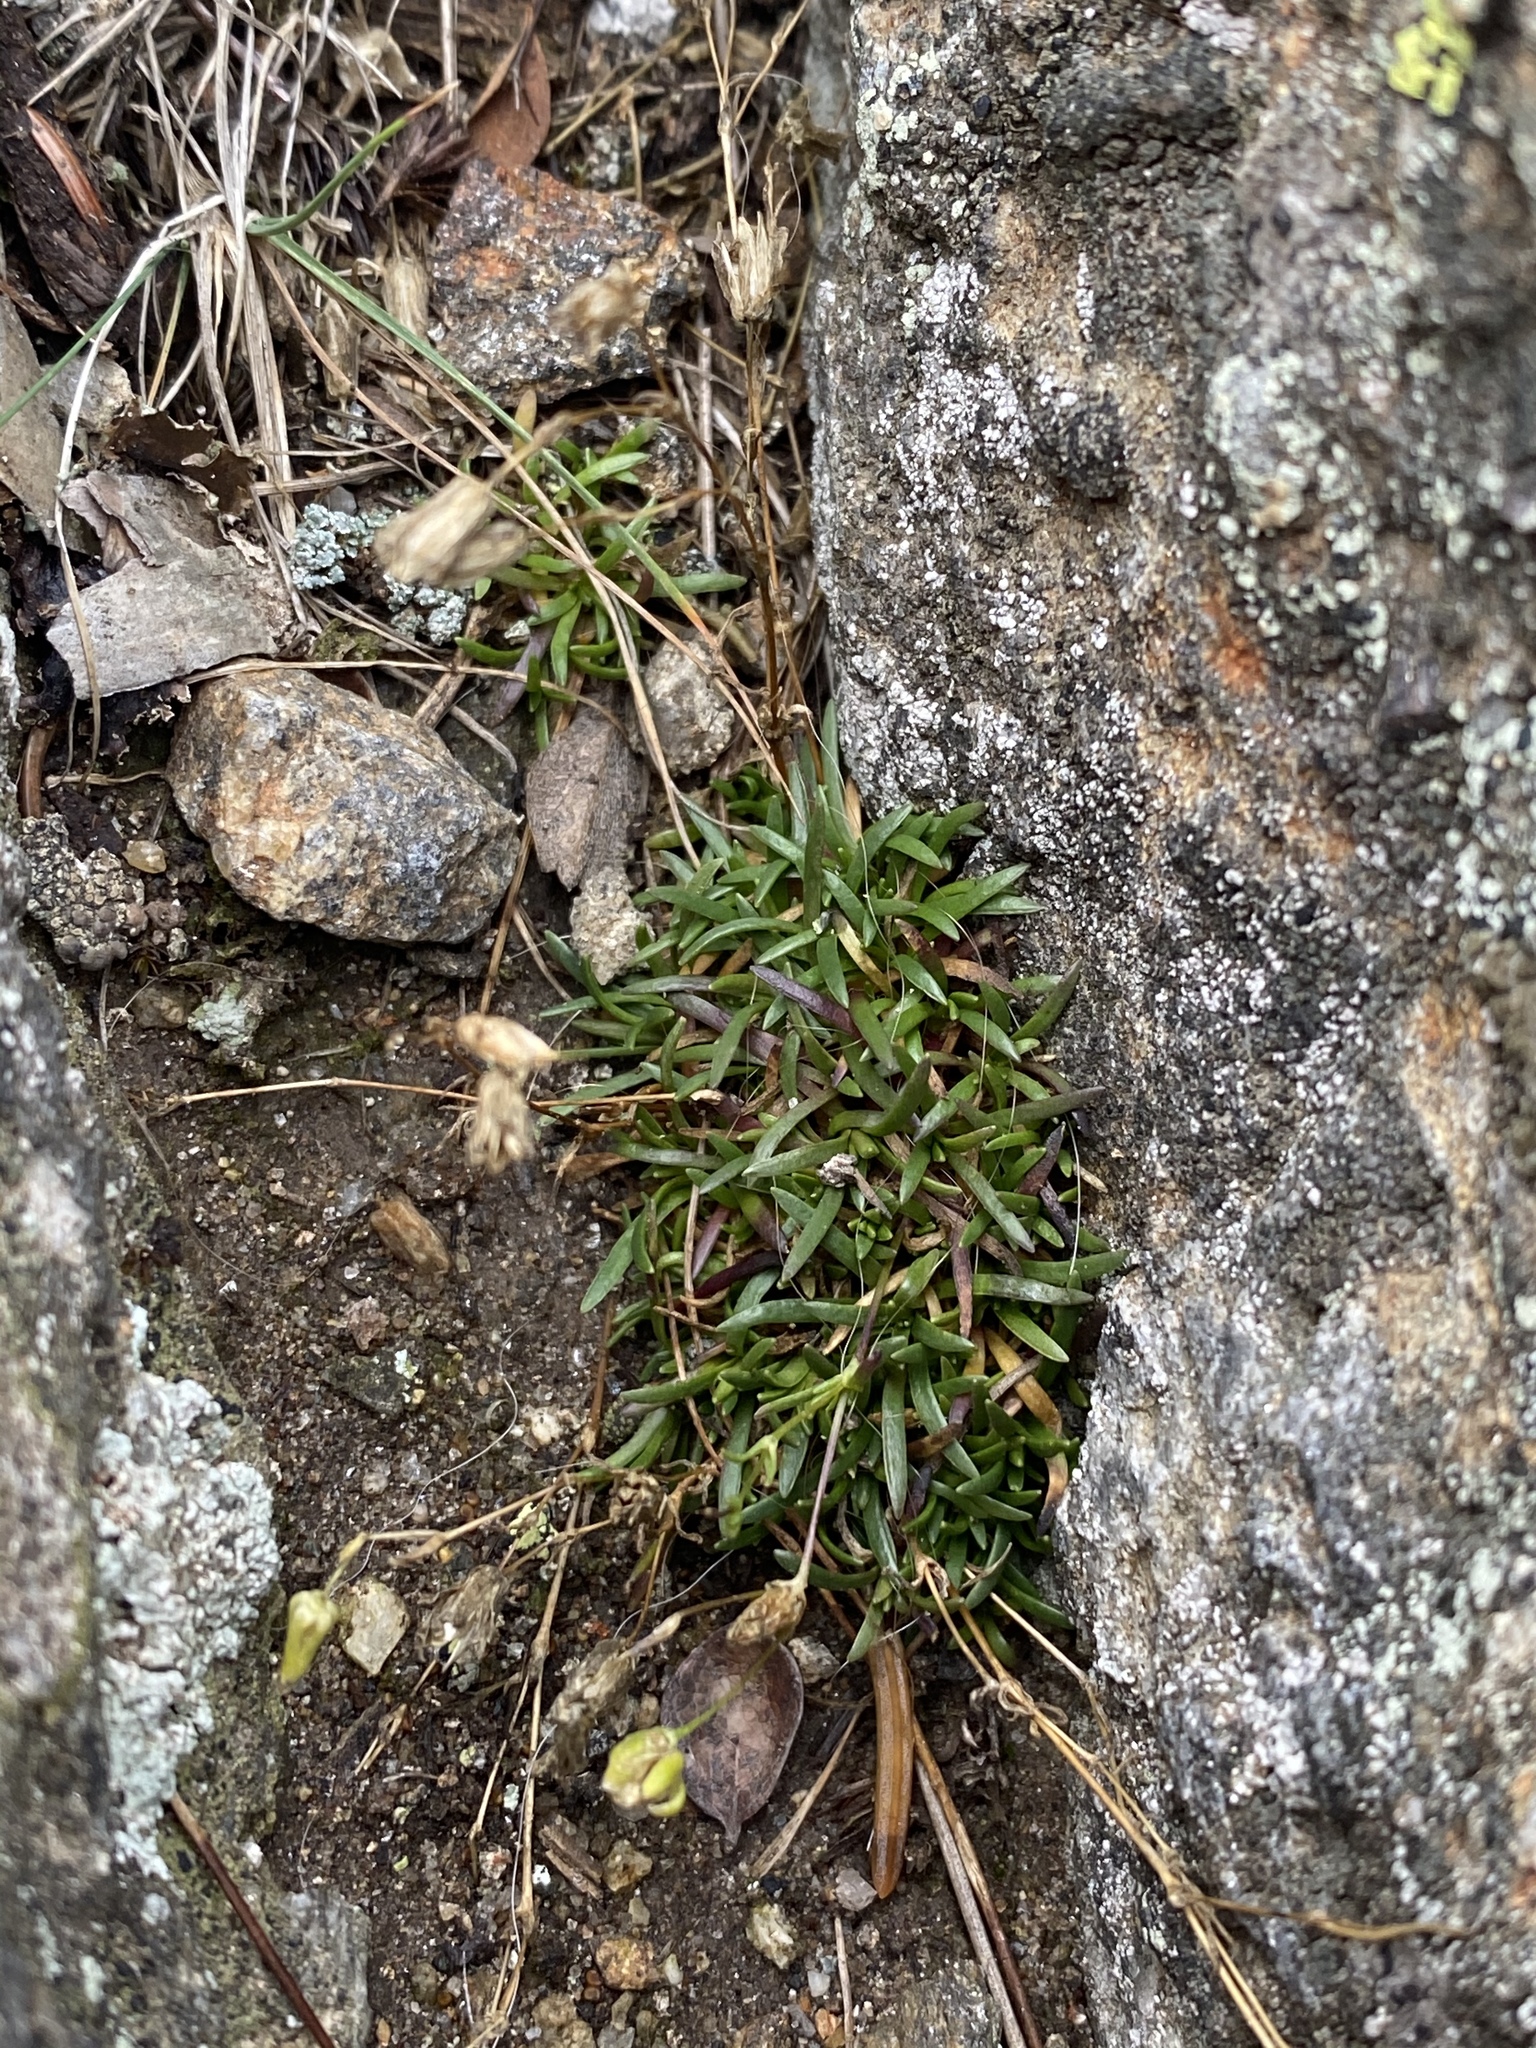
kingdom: Plantae
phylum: Tracheophyta
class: Magnoliopsida
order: Caryophyllales
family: Caryophyllaceae
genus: Geocarpon
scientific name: Geocarpon groenlandicum
